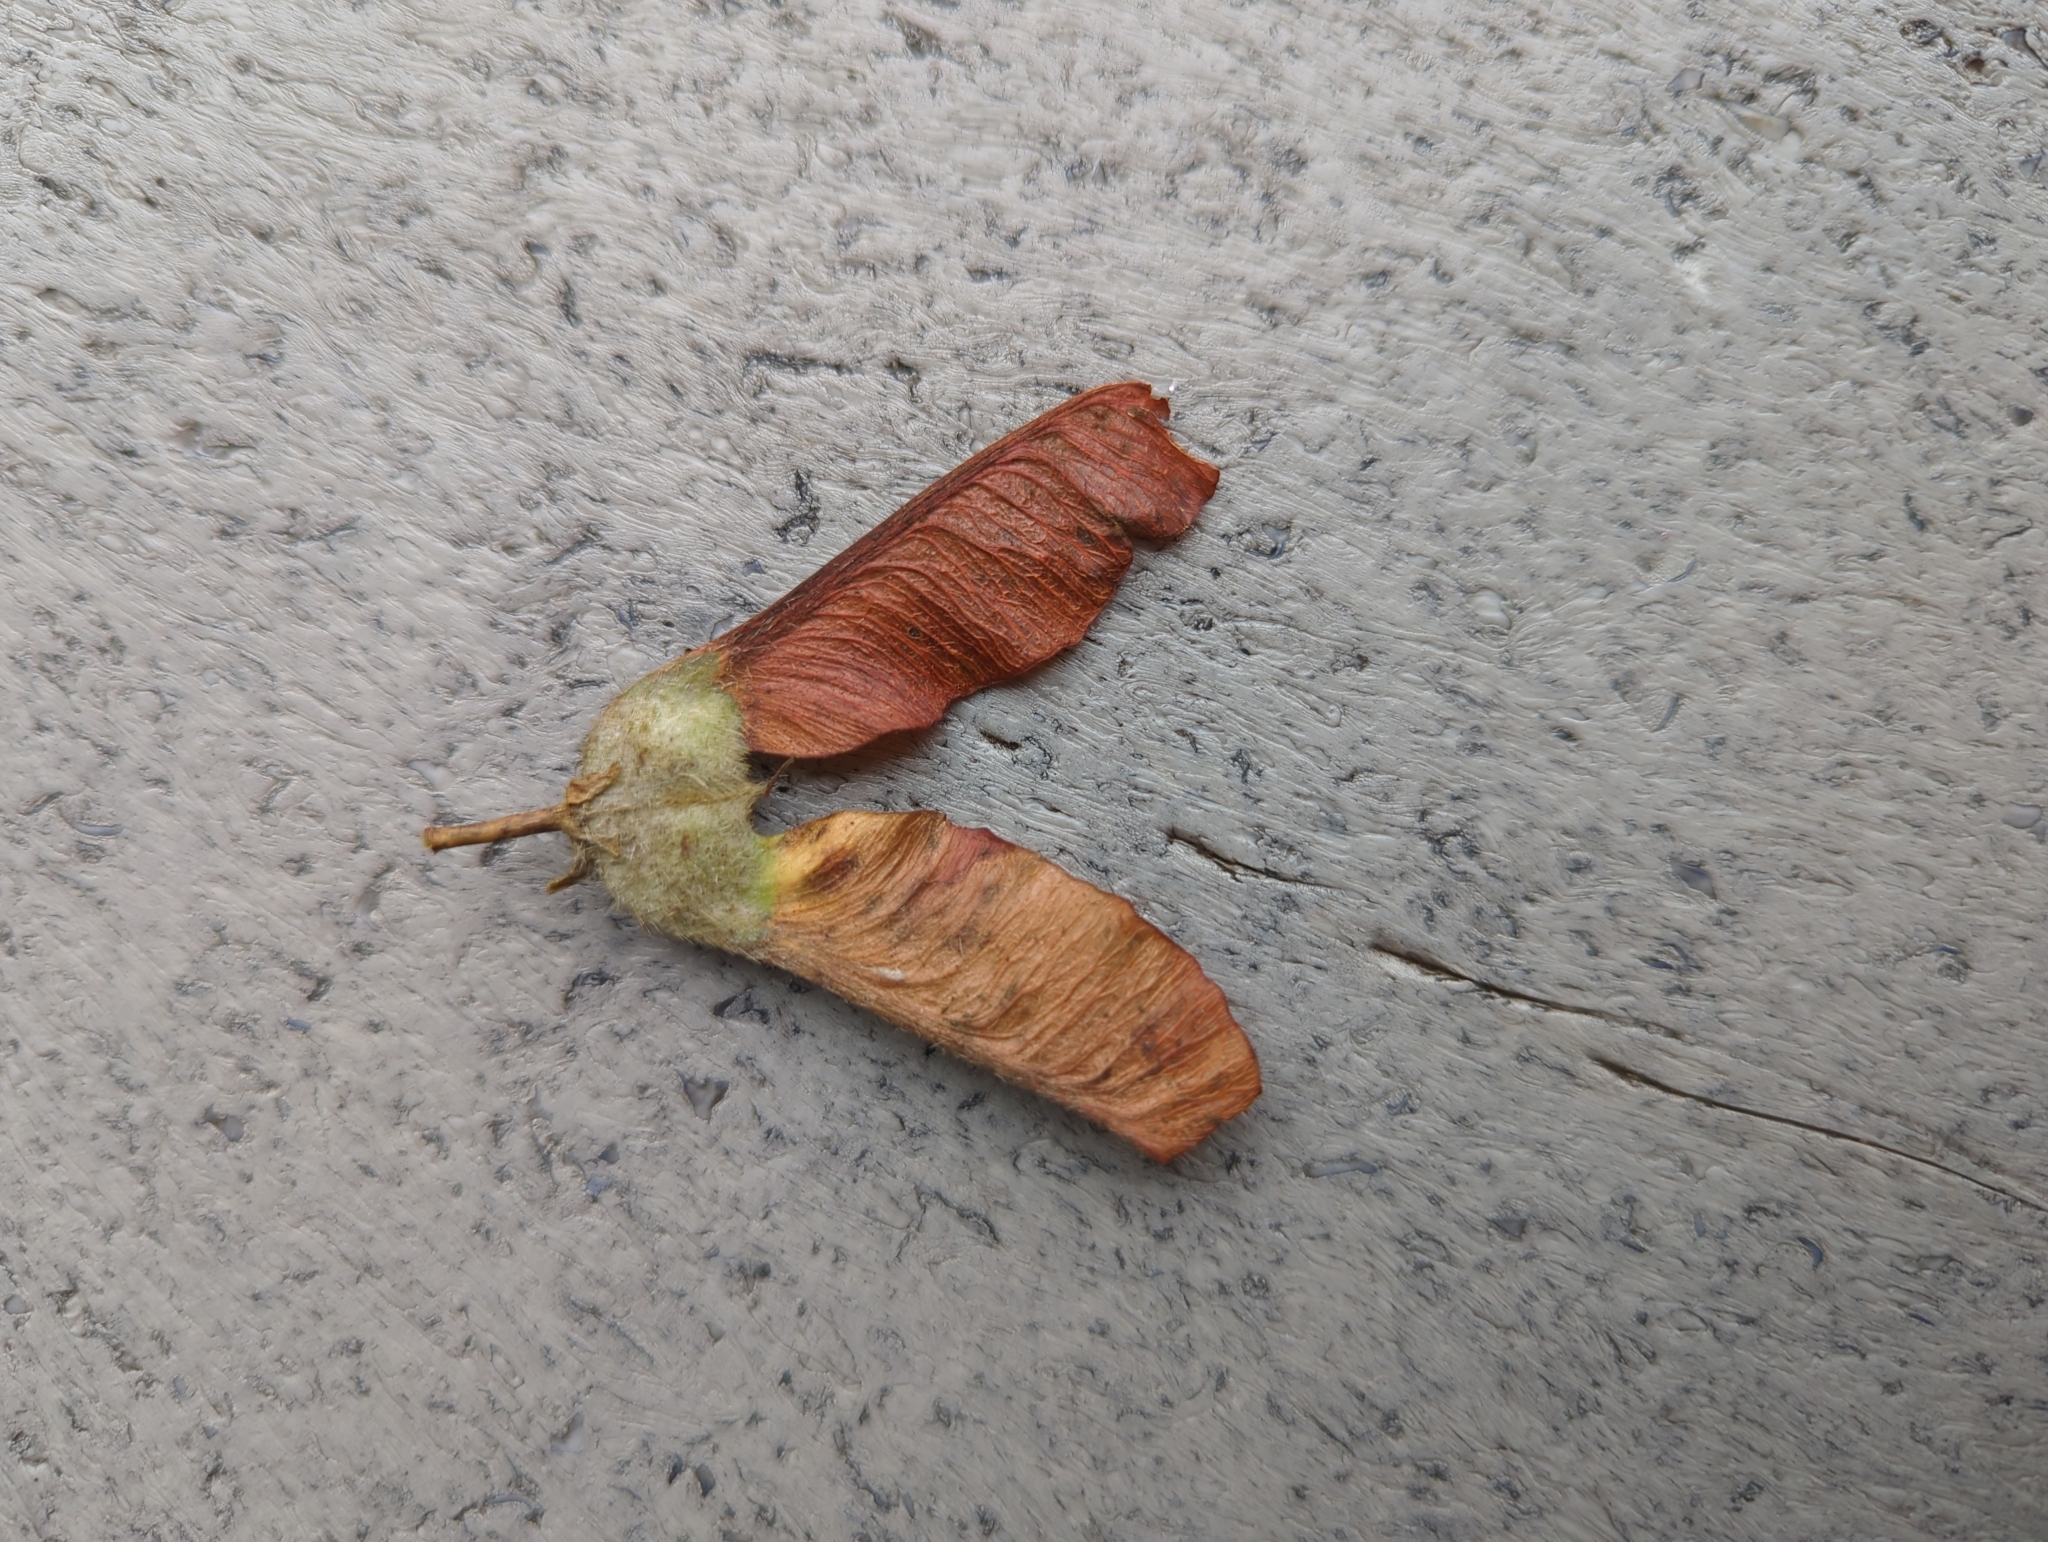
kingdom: Plantae
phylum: Tracheophyta
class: Magnoliopsida
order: Sapindales
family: Sapindaceae
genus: Acer
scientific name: Acer macrophyllum
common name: Oregon maple
